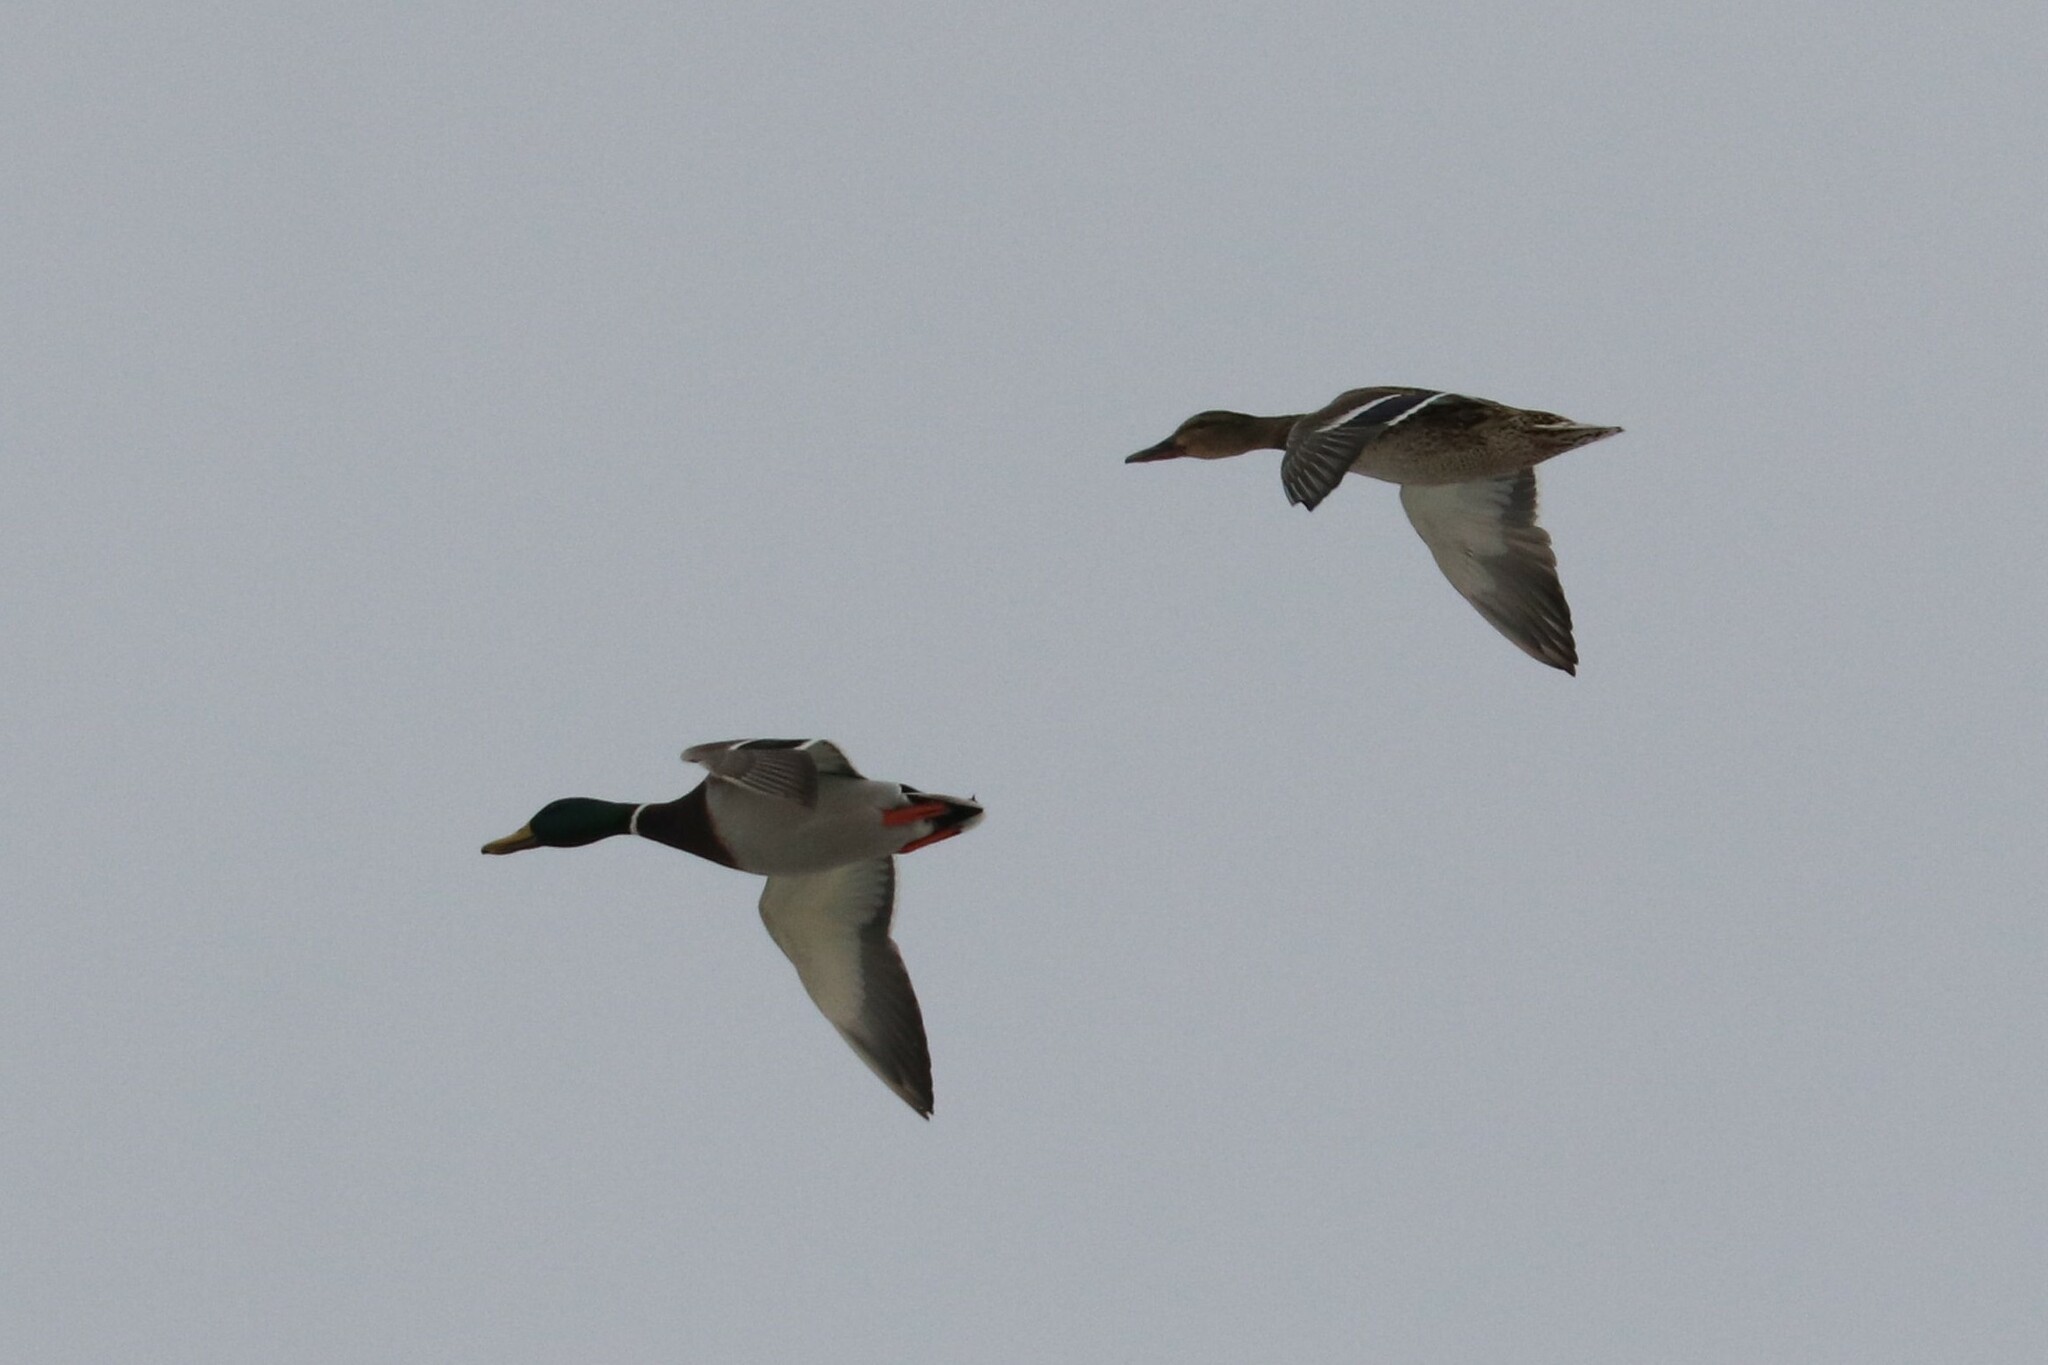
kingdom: Animalia
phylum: Chordata
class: Aves
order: Anseriformes
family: Anatidae
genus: Anas
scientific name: Anas platyrhynchos
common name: Mallard
